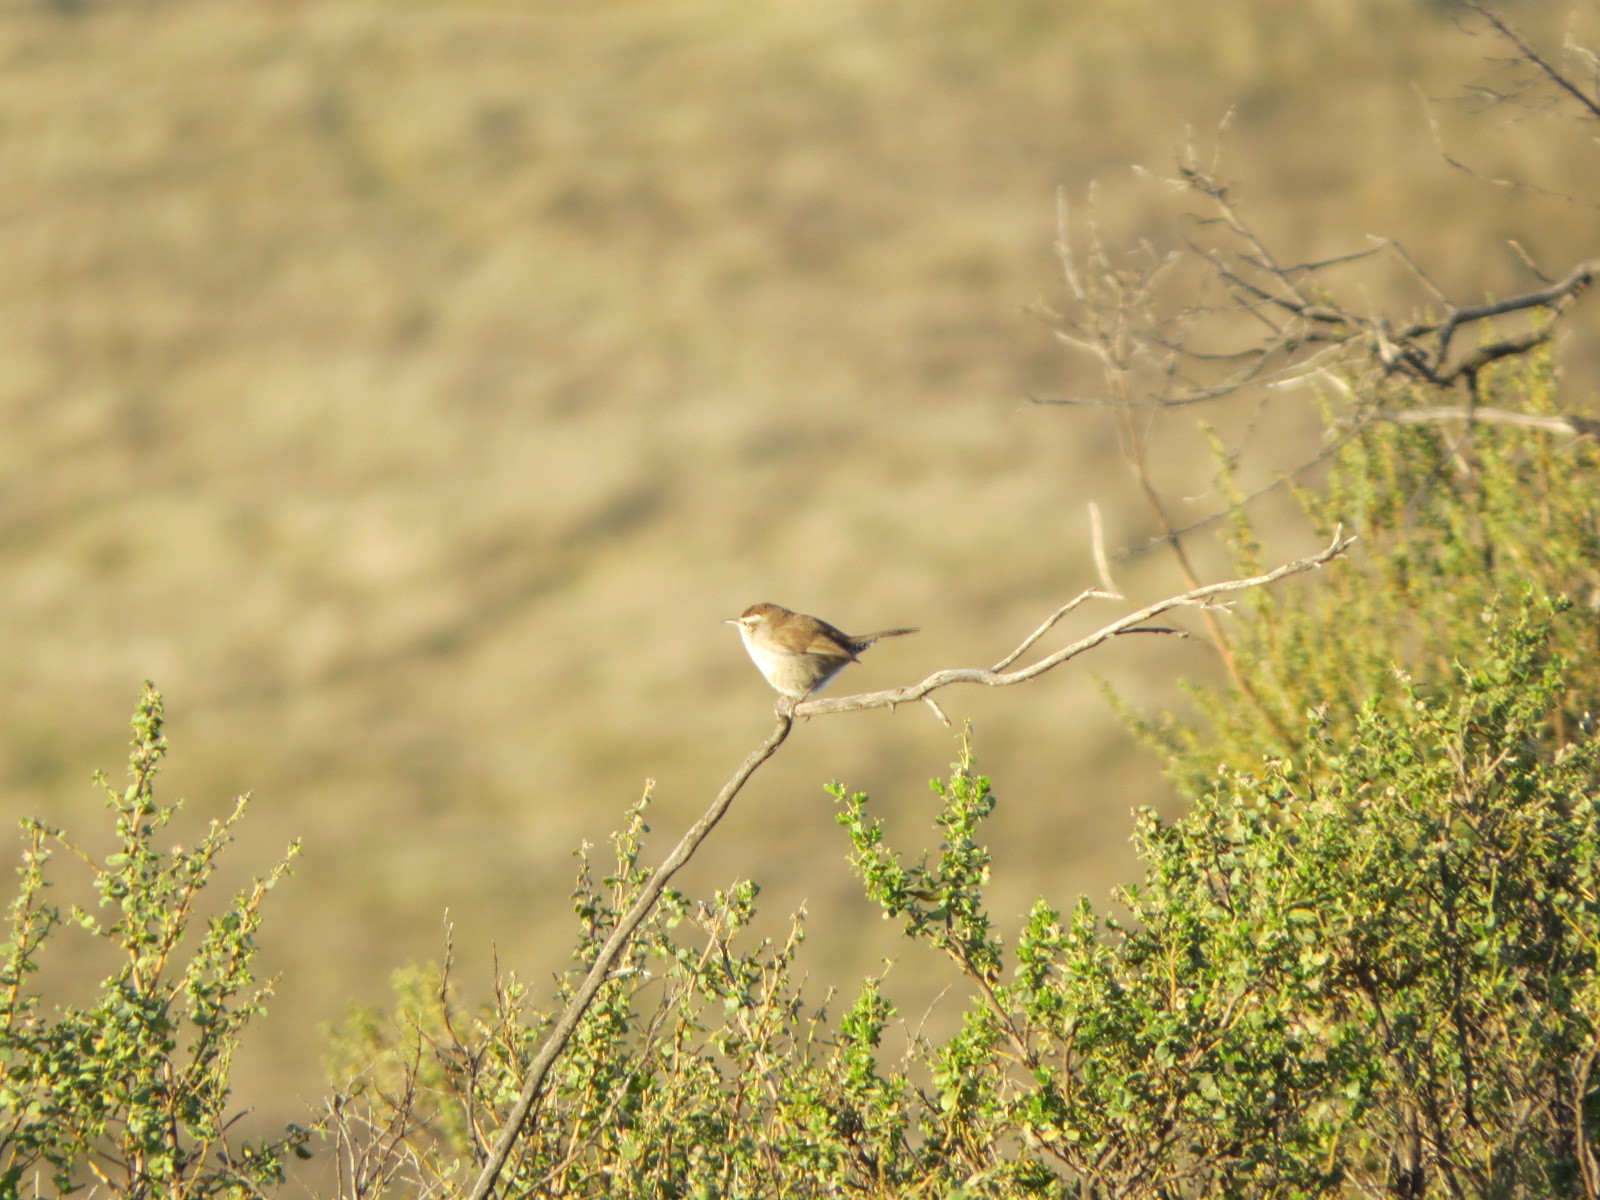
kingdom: Animalia
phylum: Chordata
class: Aves
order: Passeriformes
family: Troglodytidae
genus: Thryomanes
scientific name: Thryomanes bewickii
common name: Bewick's wren
